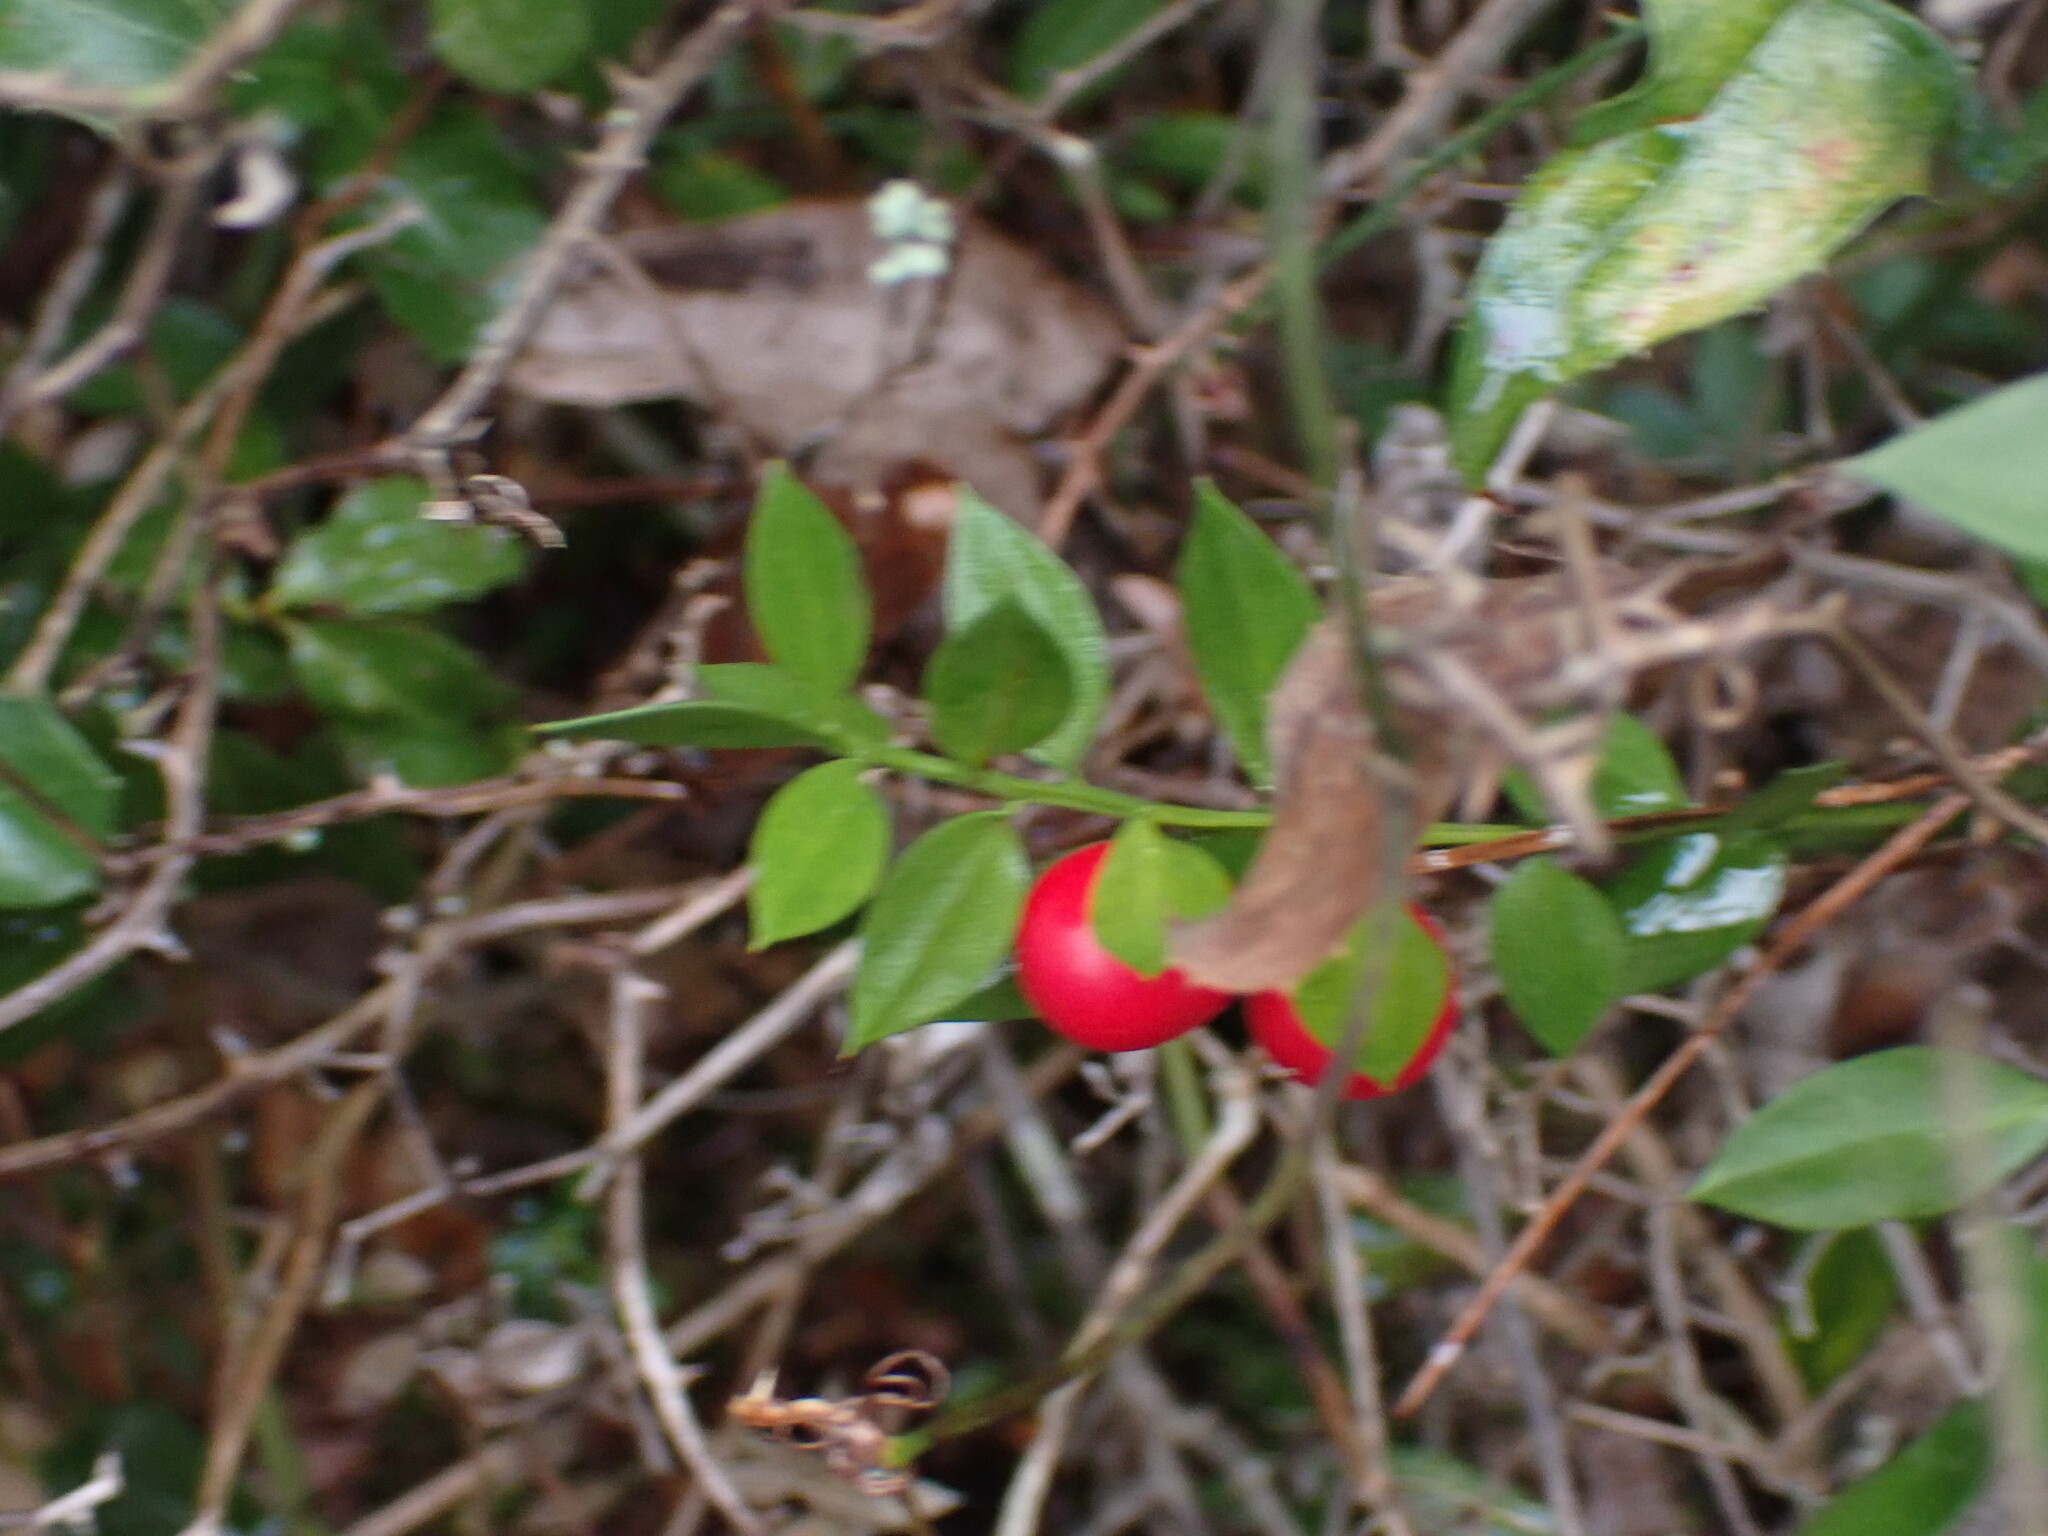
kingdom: Plantae
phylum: Tracheophyta
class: Liliopsida
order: Asparagales
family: Asparagaceae
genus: Ruscus
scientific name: Ruscus aculeatus
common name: Butcher's-broom
